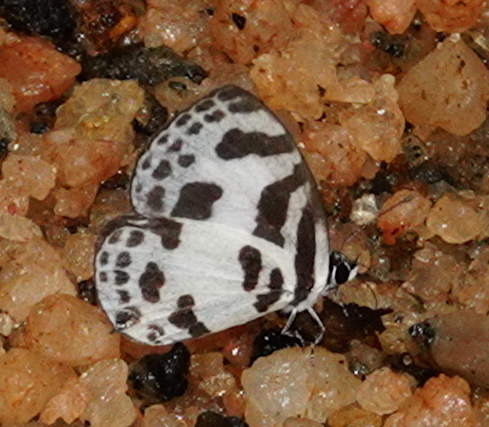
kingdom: Animalia
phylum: Arthropoda
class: Insecta
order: Lepidoptera
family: Lycaenidae
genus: Discolampa
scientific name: Discolampa ethion
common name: Banded blue pierrot
